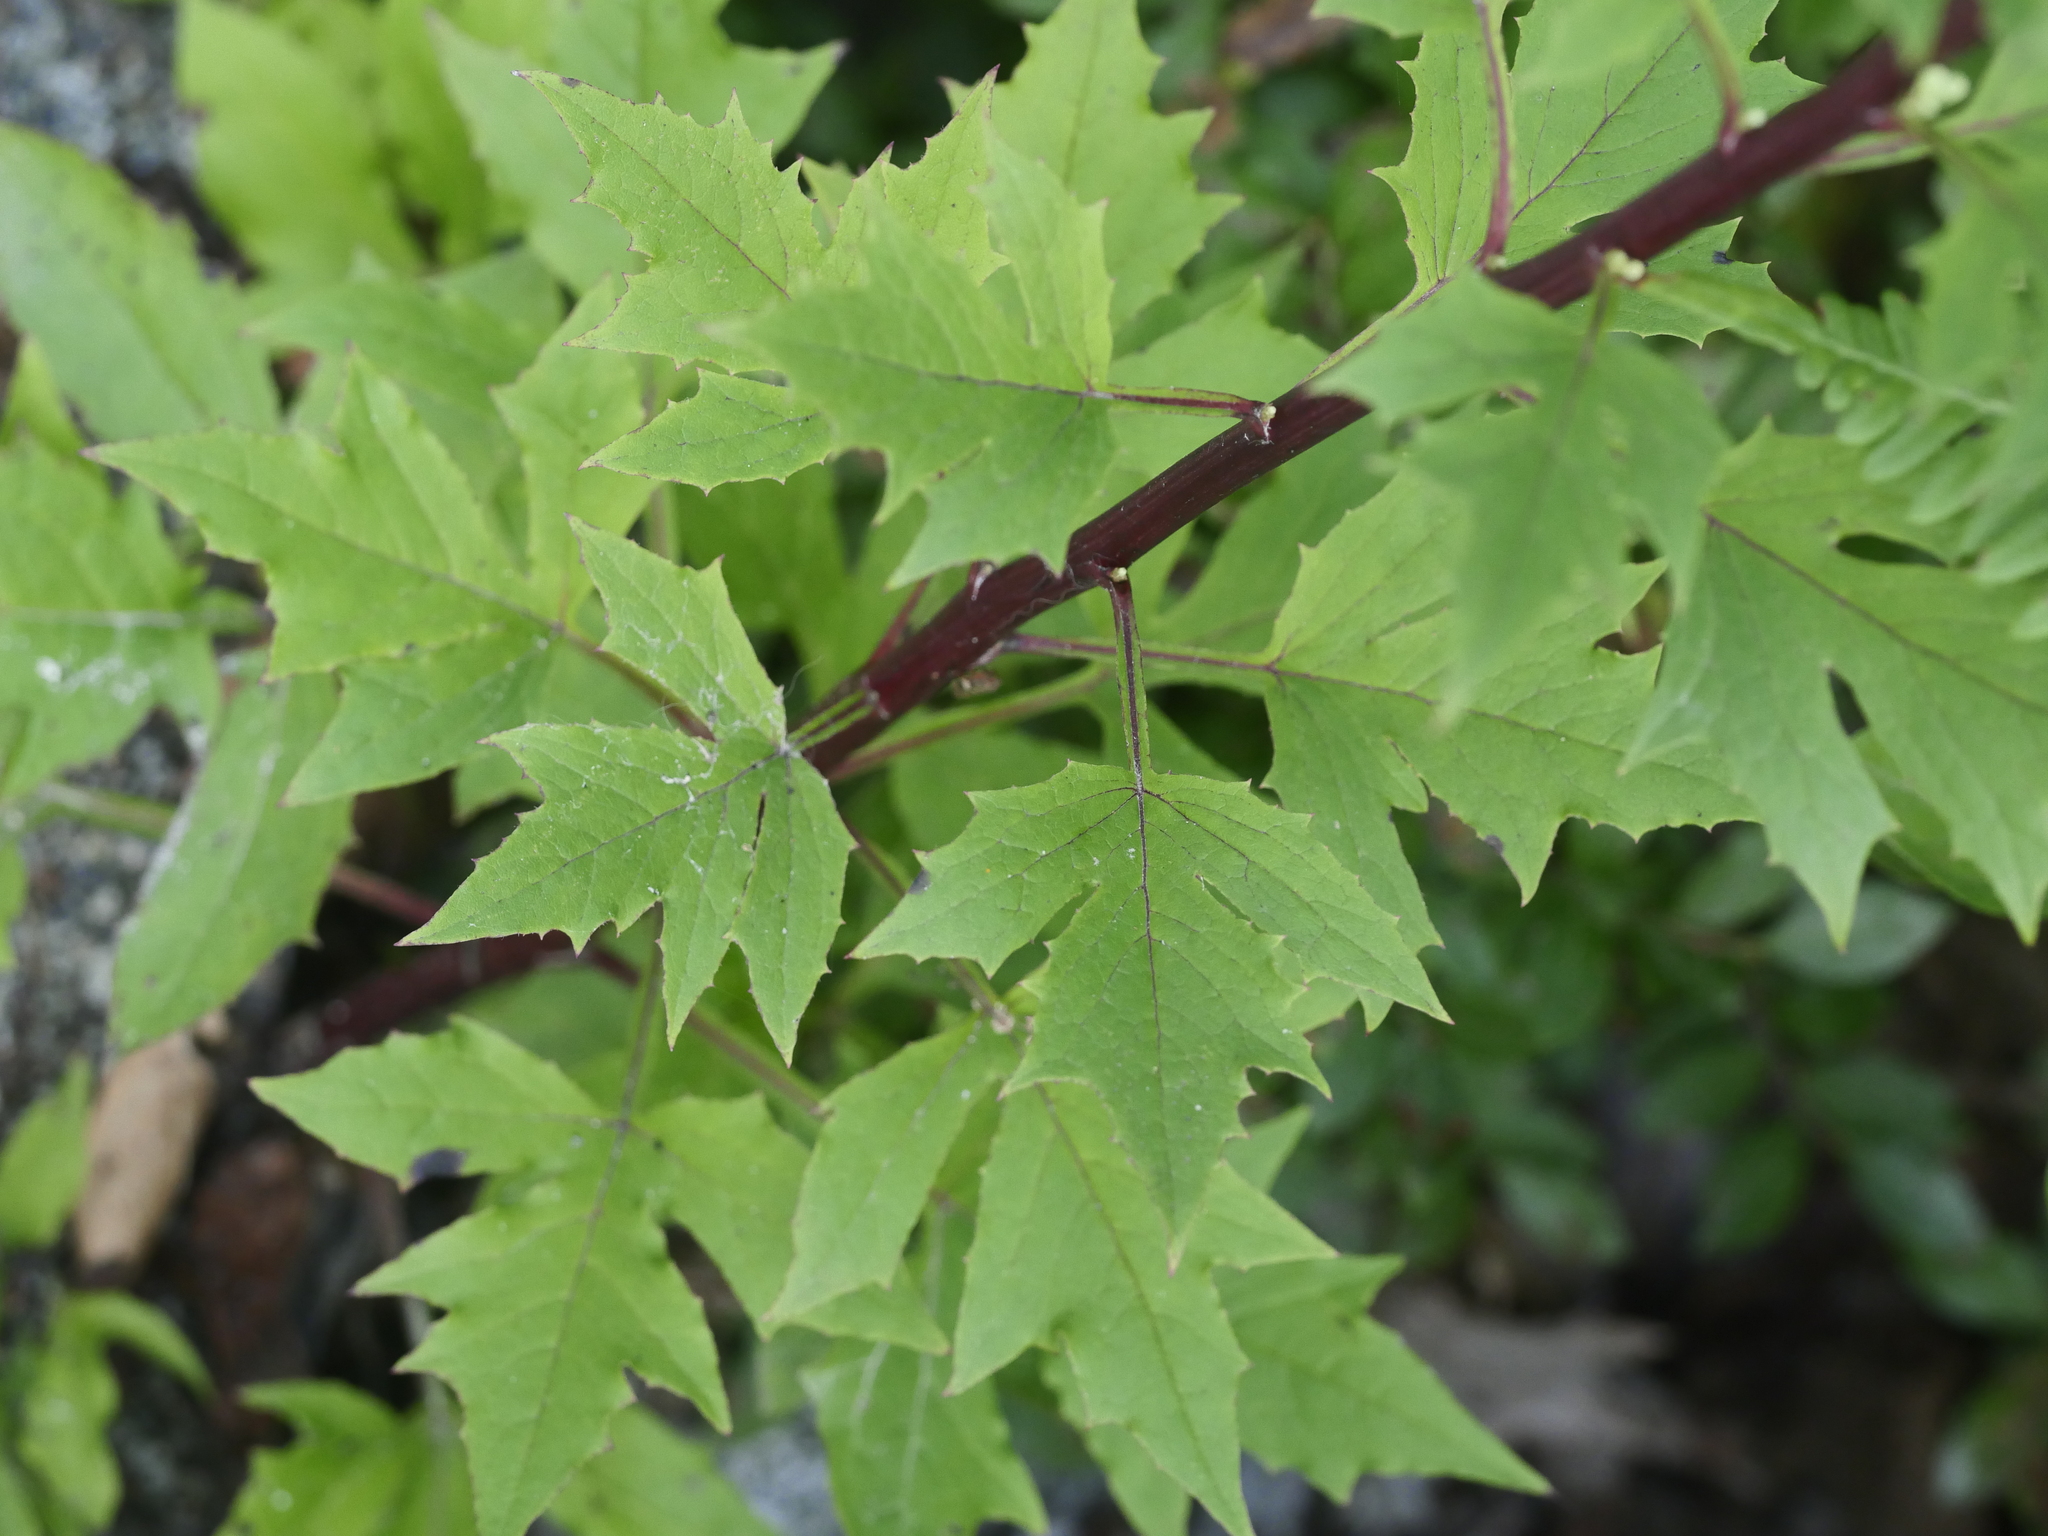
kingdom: Plantae
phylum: Tracheophyta
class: Magnoliopsida
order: Asterales
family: Asteraceae
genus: Nabalus
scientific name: Nabalus trifoliolatus
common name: Gall-of-the-earth
